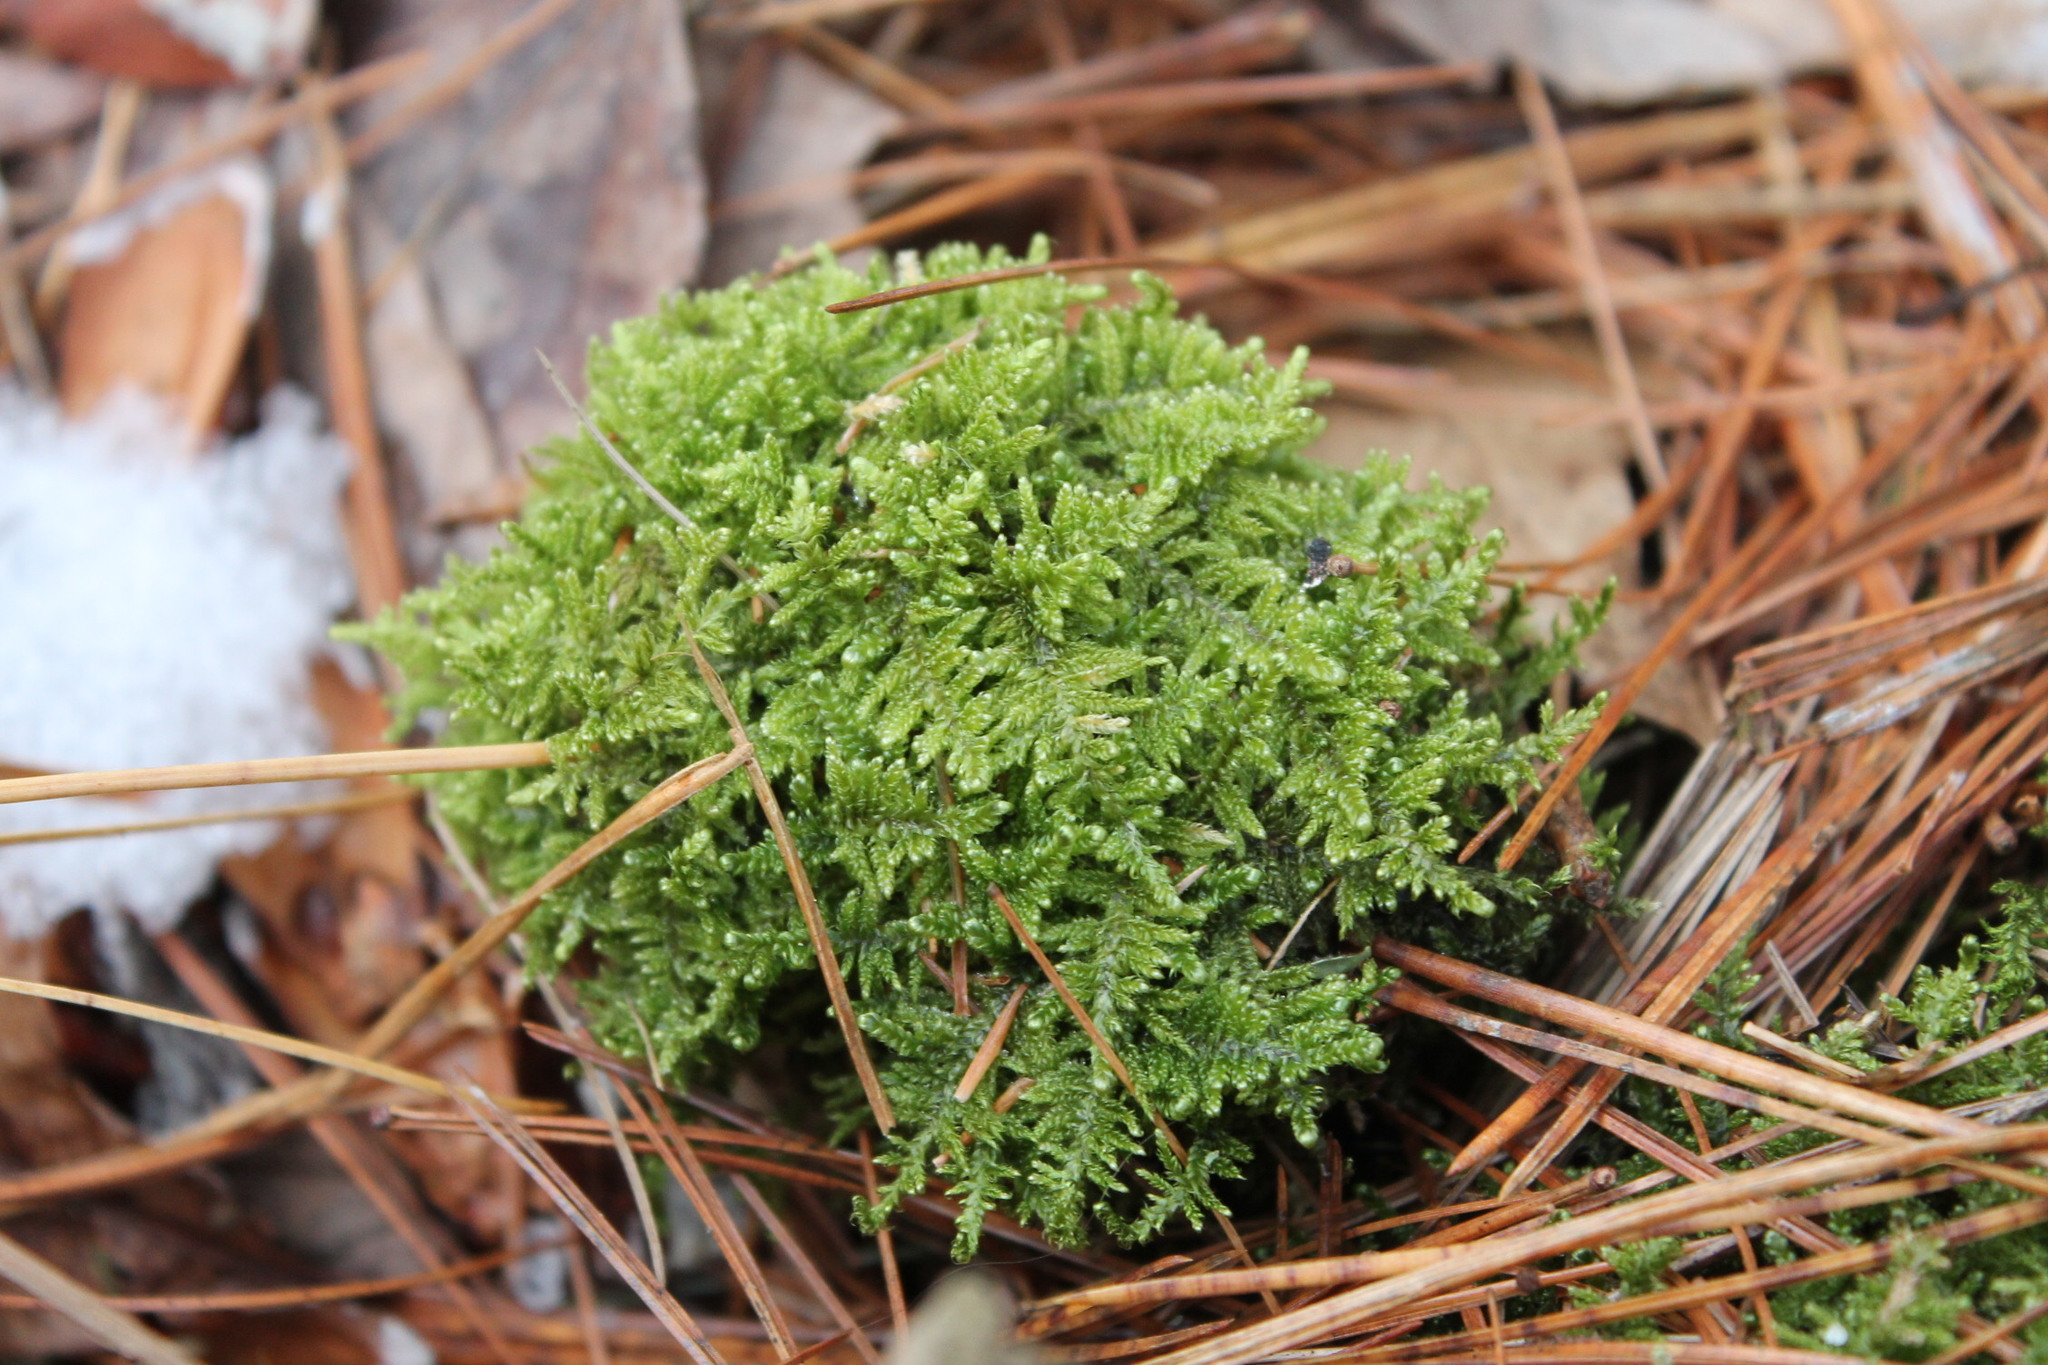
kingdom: Plantae
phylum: Bryophyta
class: Bryopsida
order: Hypnales
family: Callicladiaceae
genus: Callicladium
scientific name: Callicladium imponens
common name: Brocade moss
